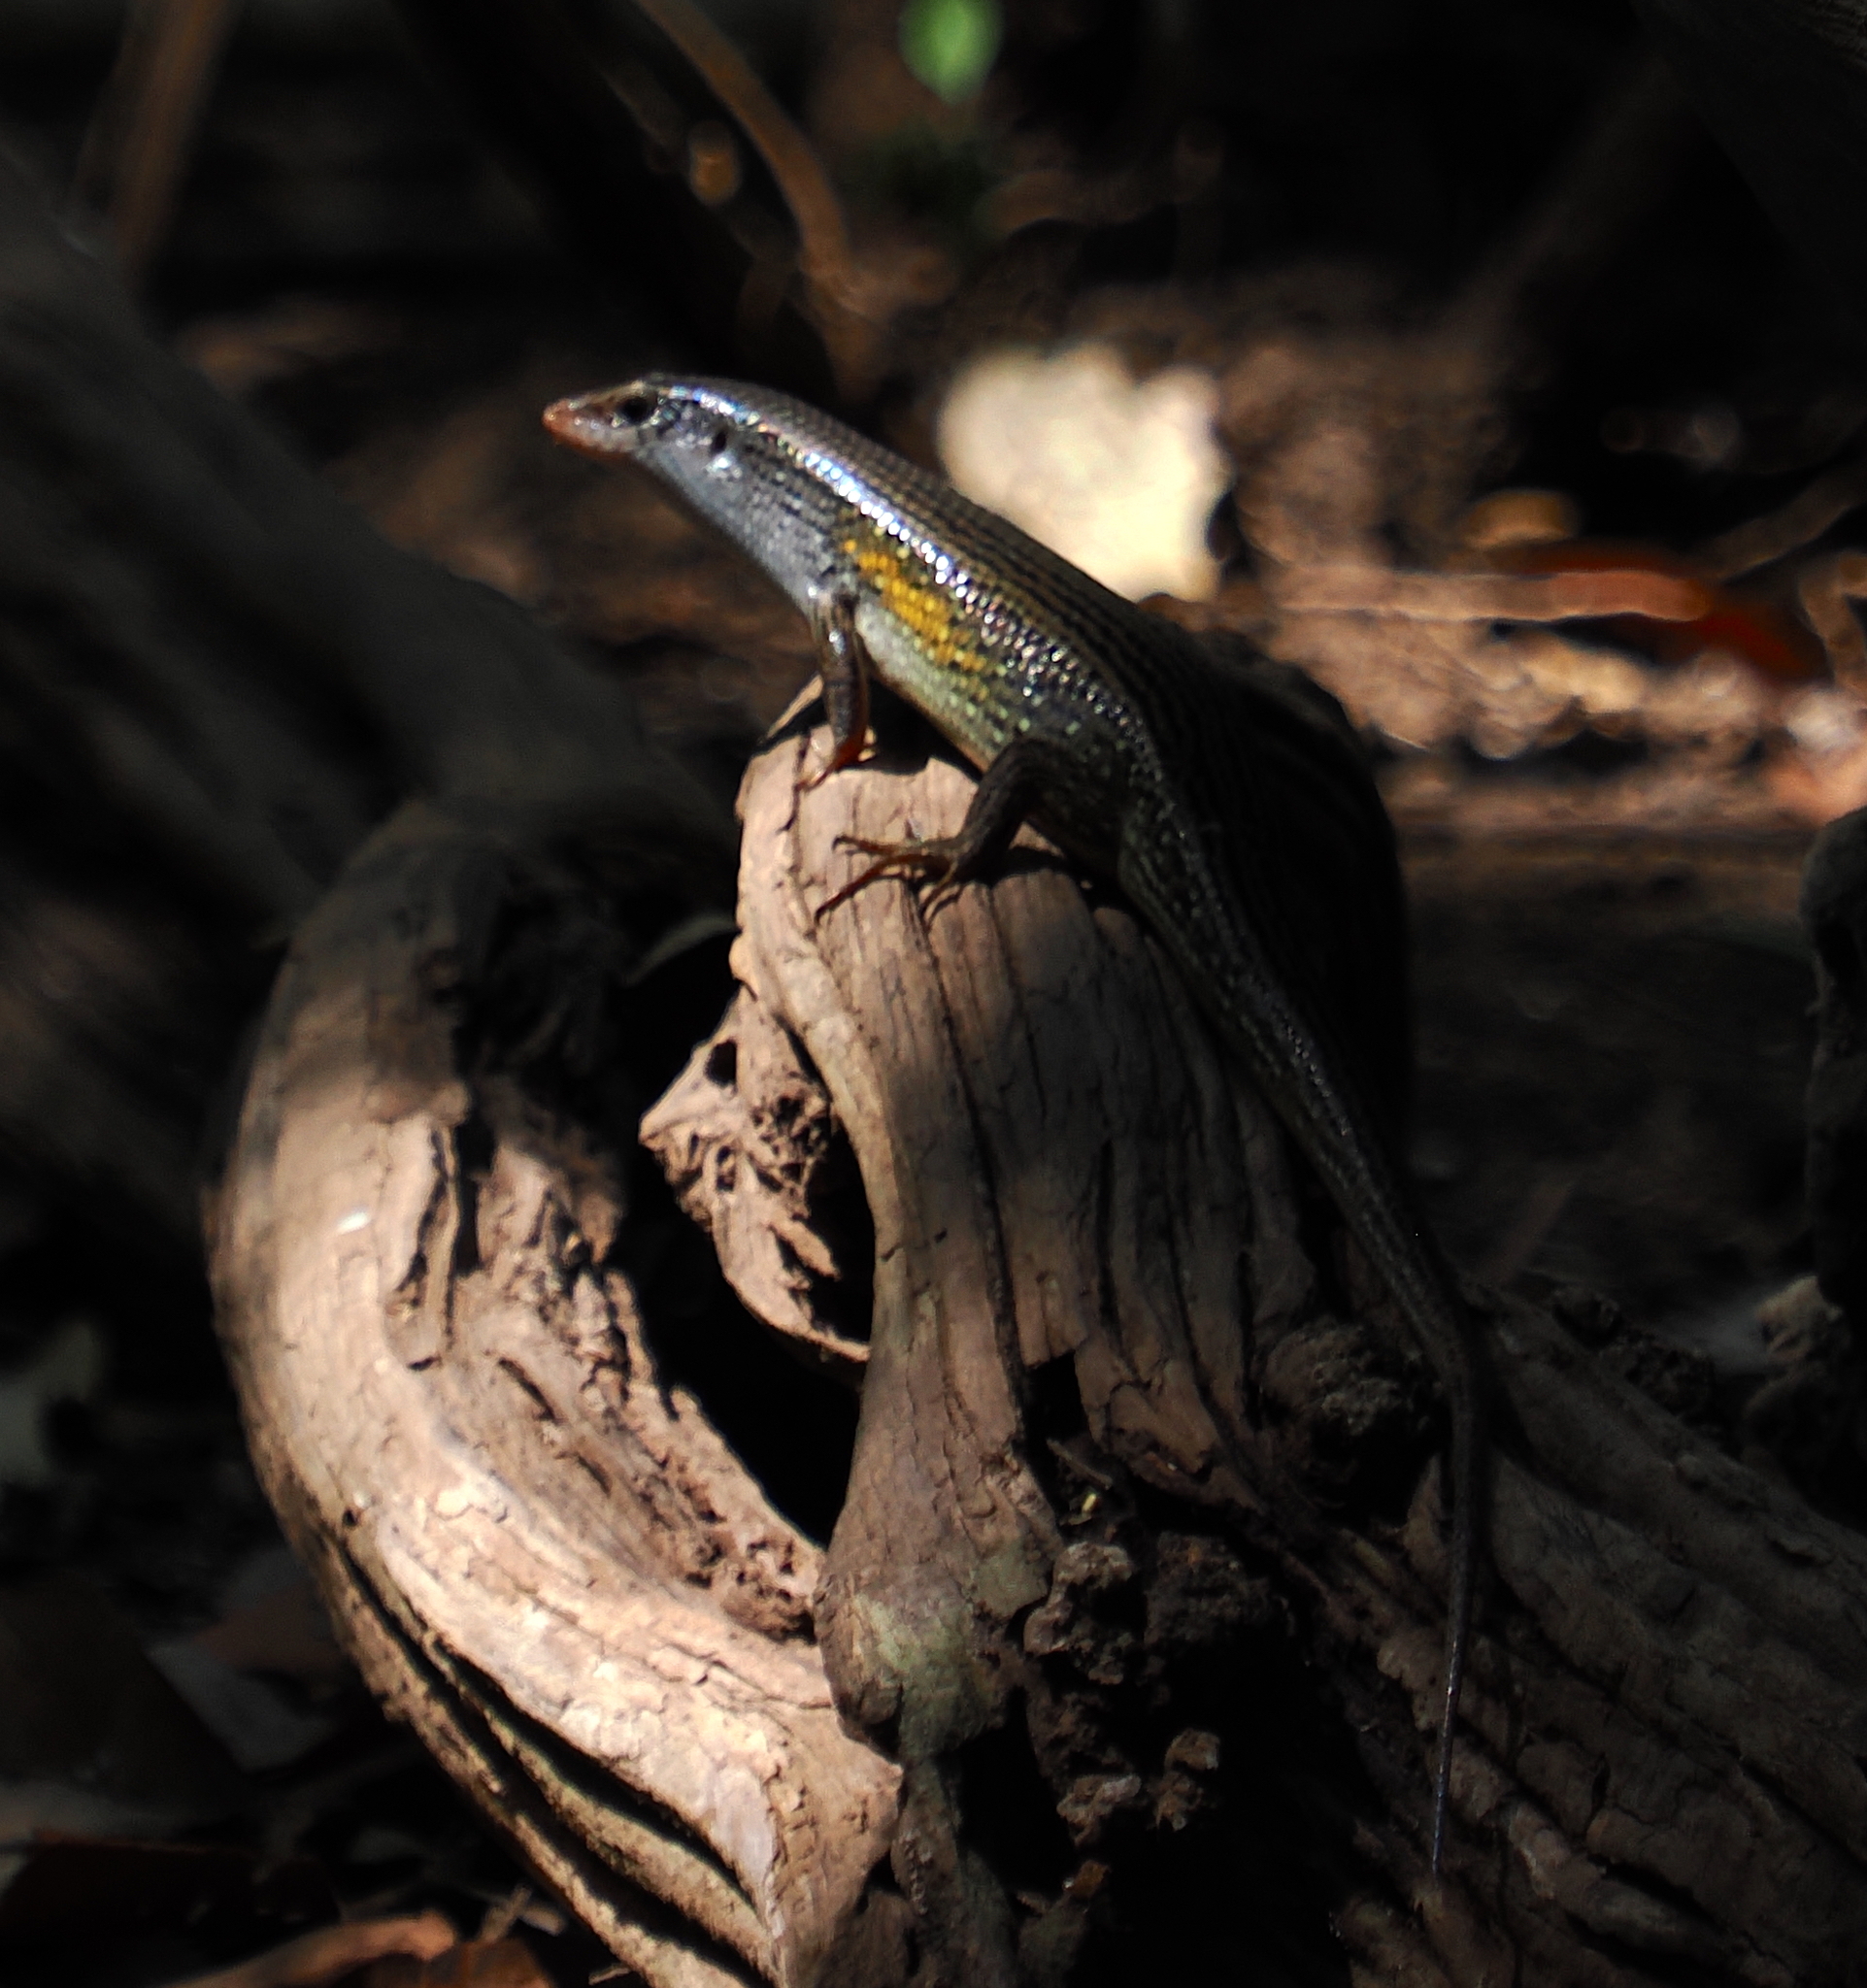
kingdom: Animalia
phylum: Chordata
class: Squamata
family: Scincidae
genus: Eutropis
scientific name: Eutropis multifasciata
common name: Common mabuya
